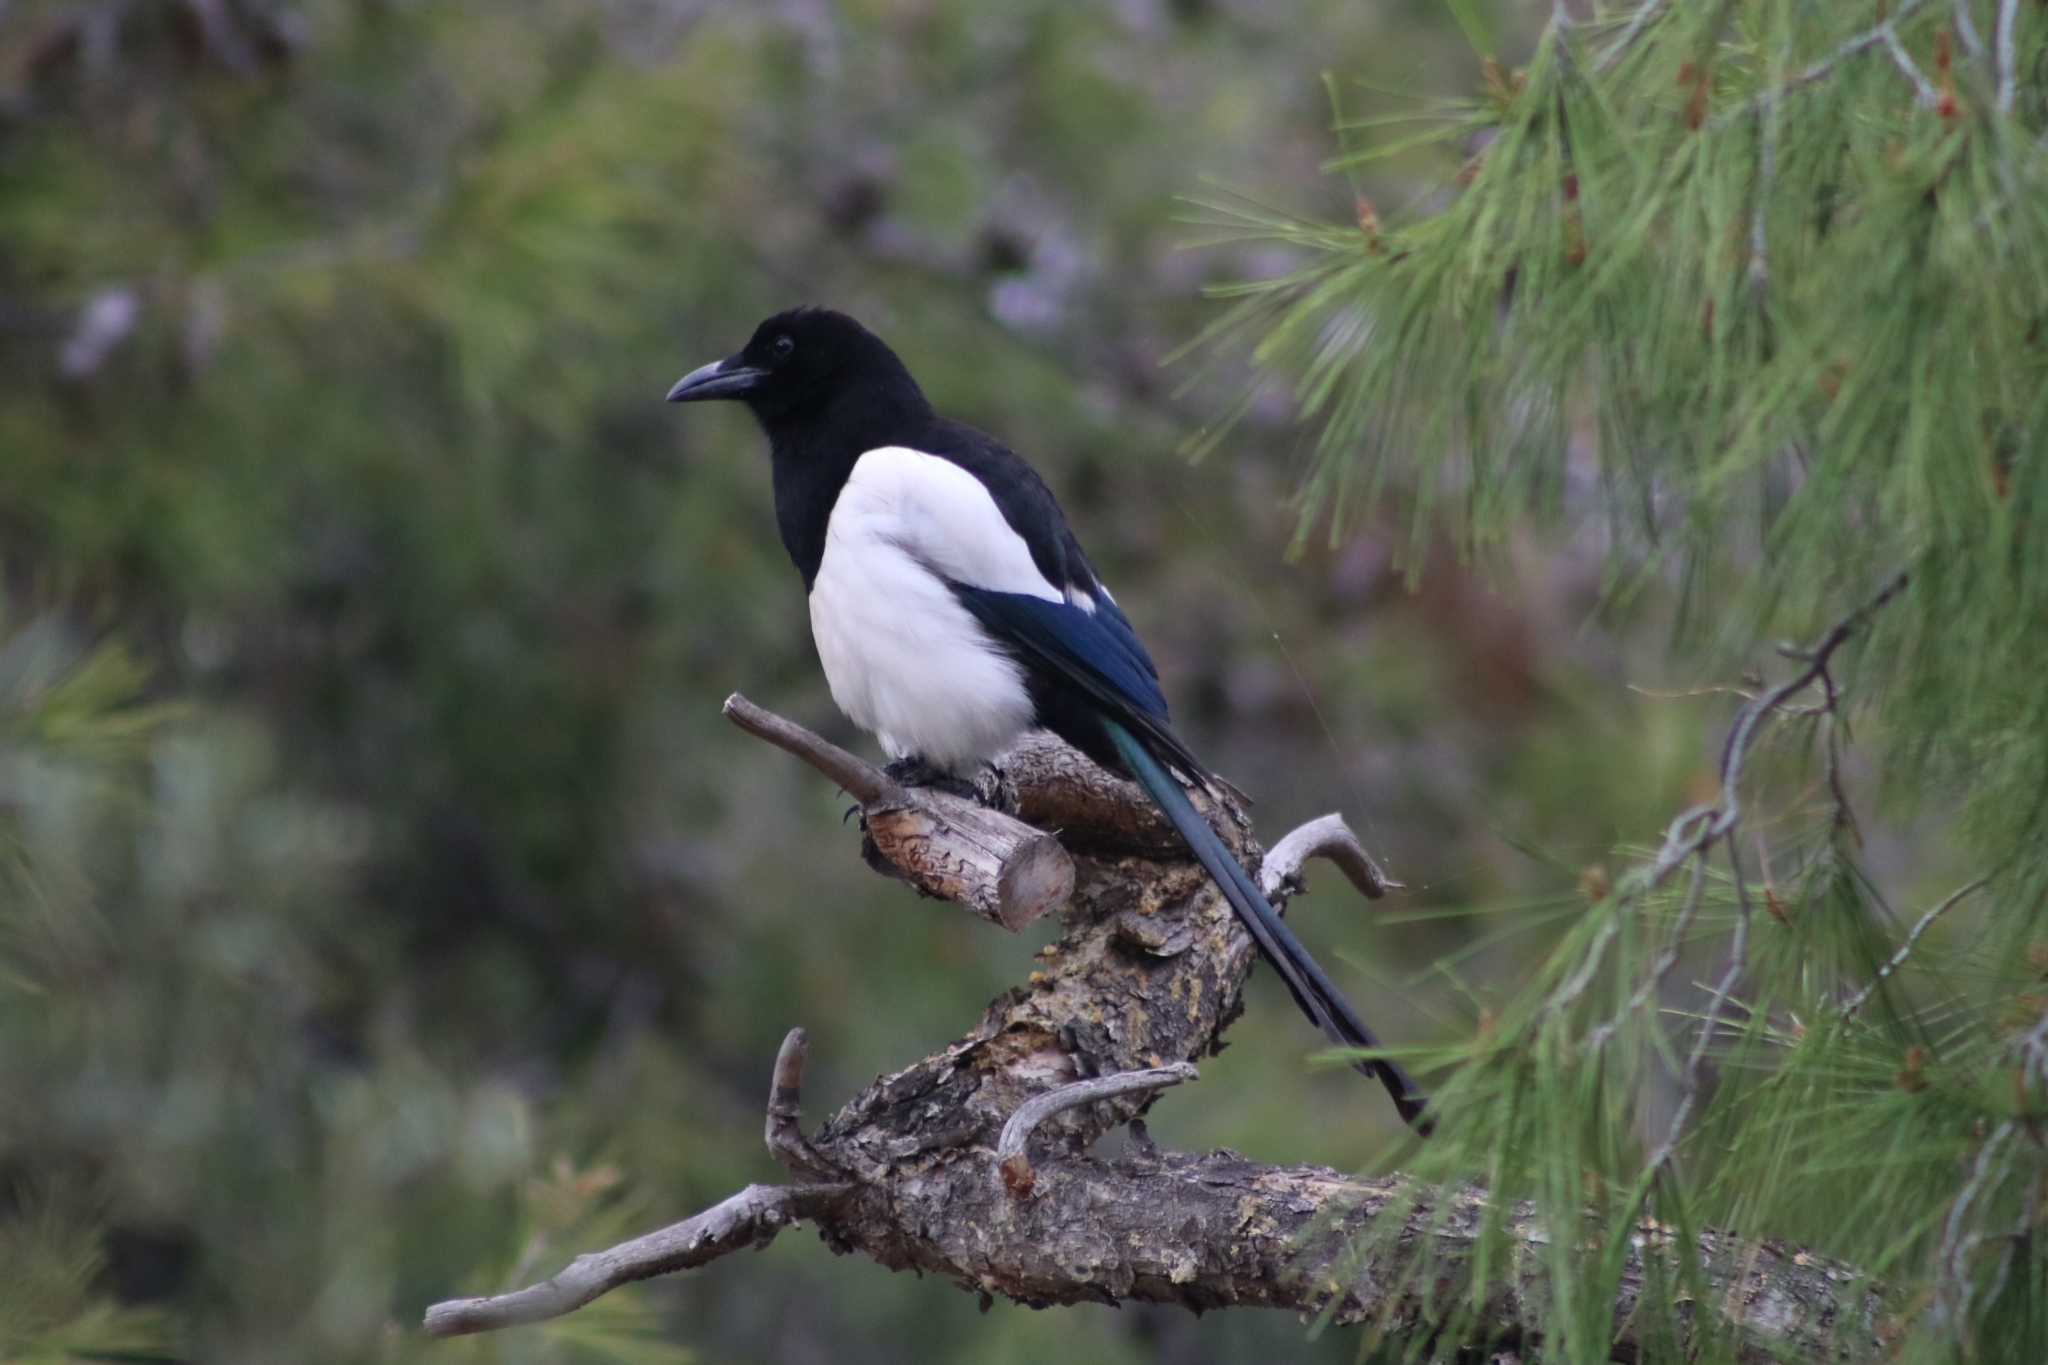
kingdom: Animalia
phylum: Chordata
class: Aves
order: Passeriformes
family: Corvidae
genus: Pica
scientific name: Pica pica
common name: Eurasian magpie
